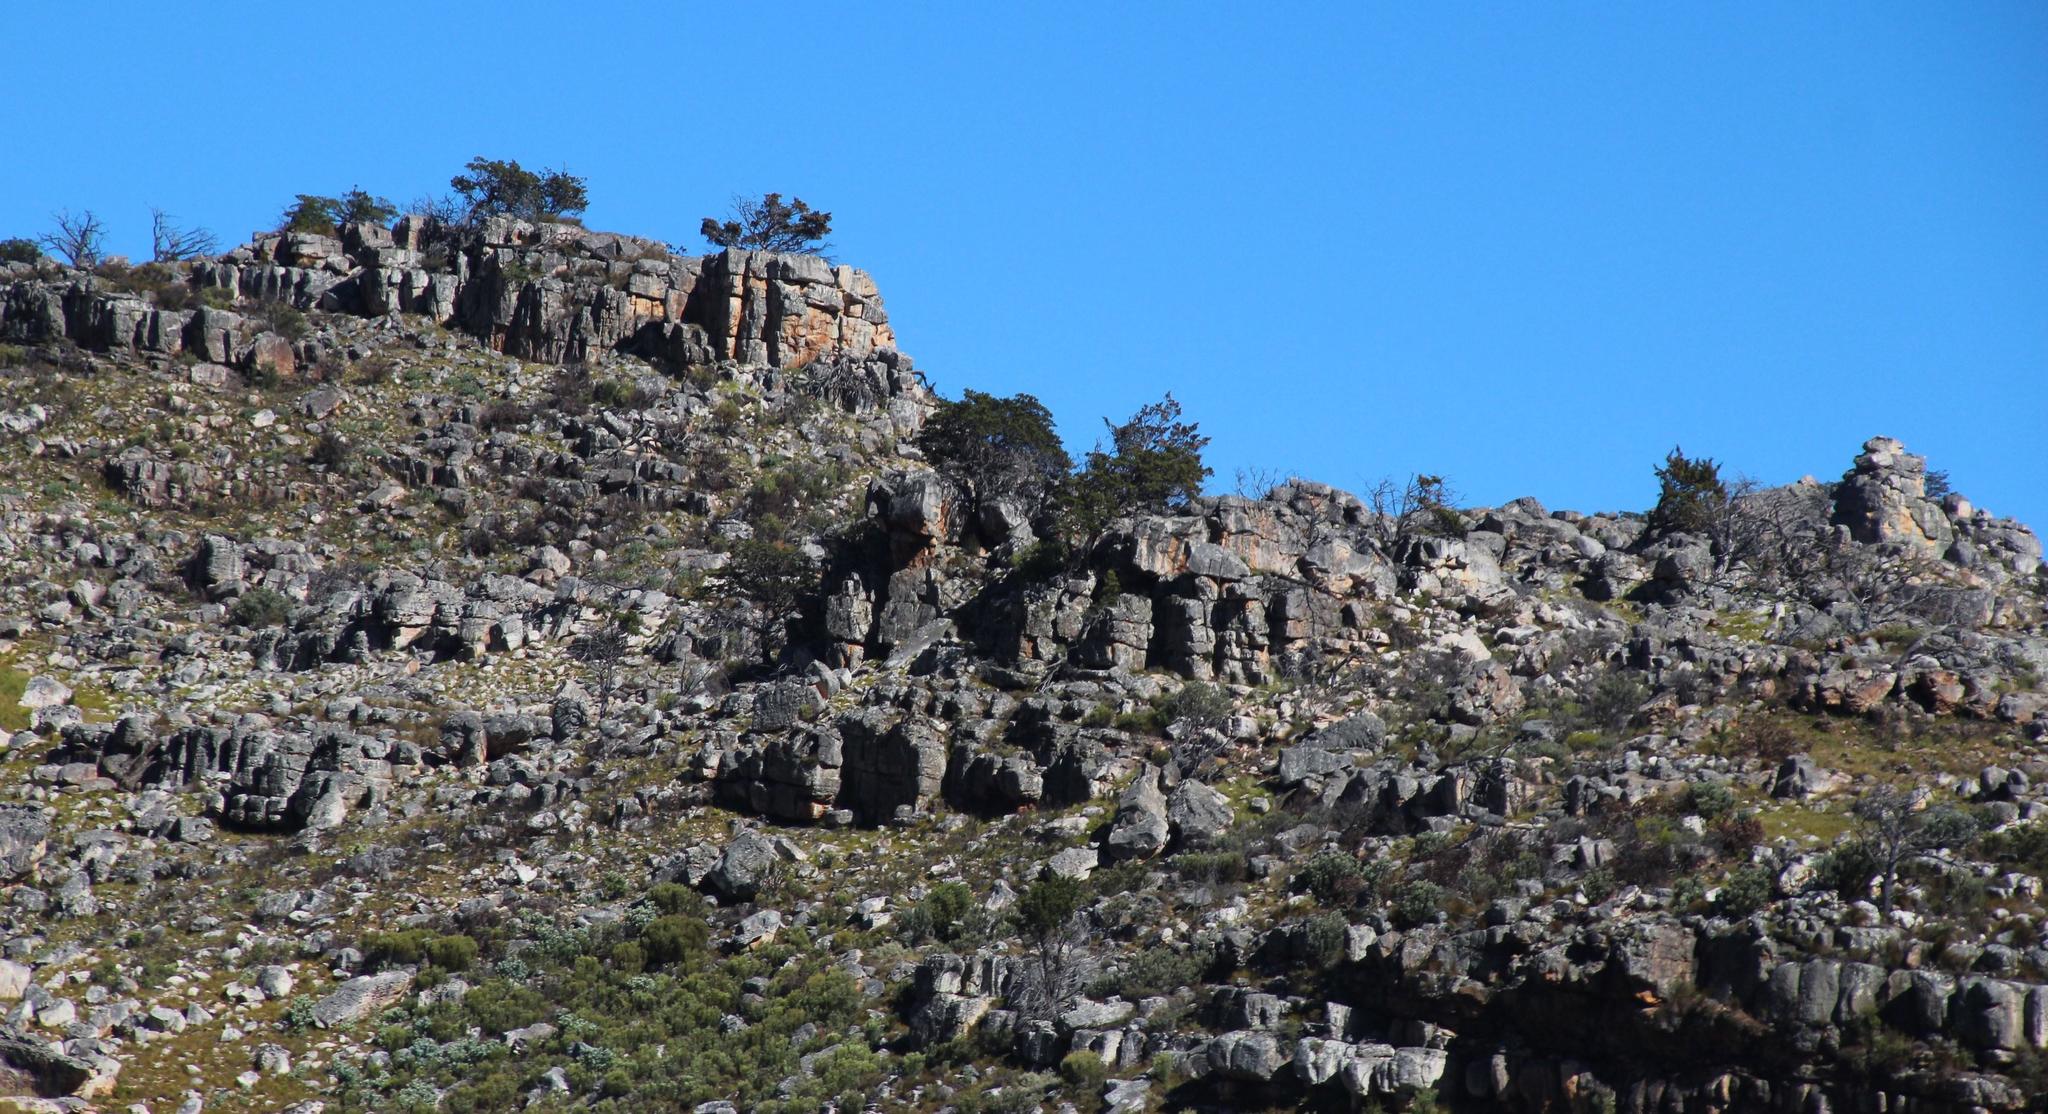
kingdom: Plantae
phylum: Tracheophyta
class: Pinopsida
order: Pinales
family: Cupressaceae
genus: Widdringtonia
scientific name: Widdringtonia nodiflora
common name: Cape cypress
